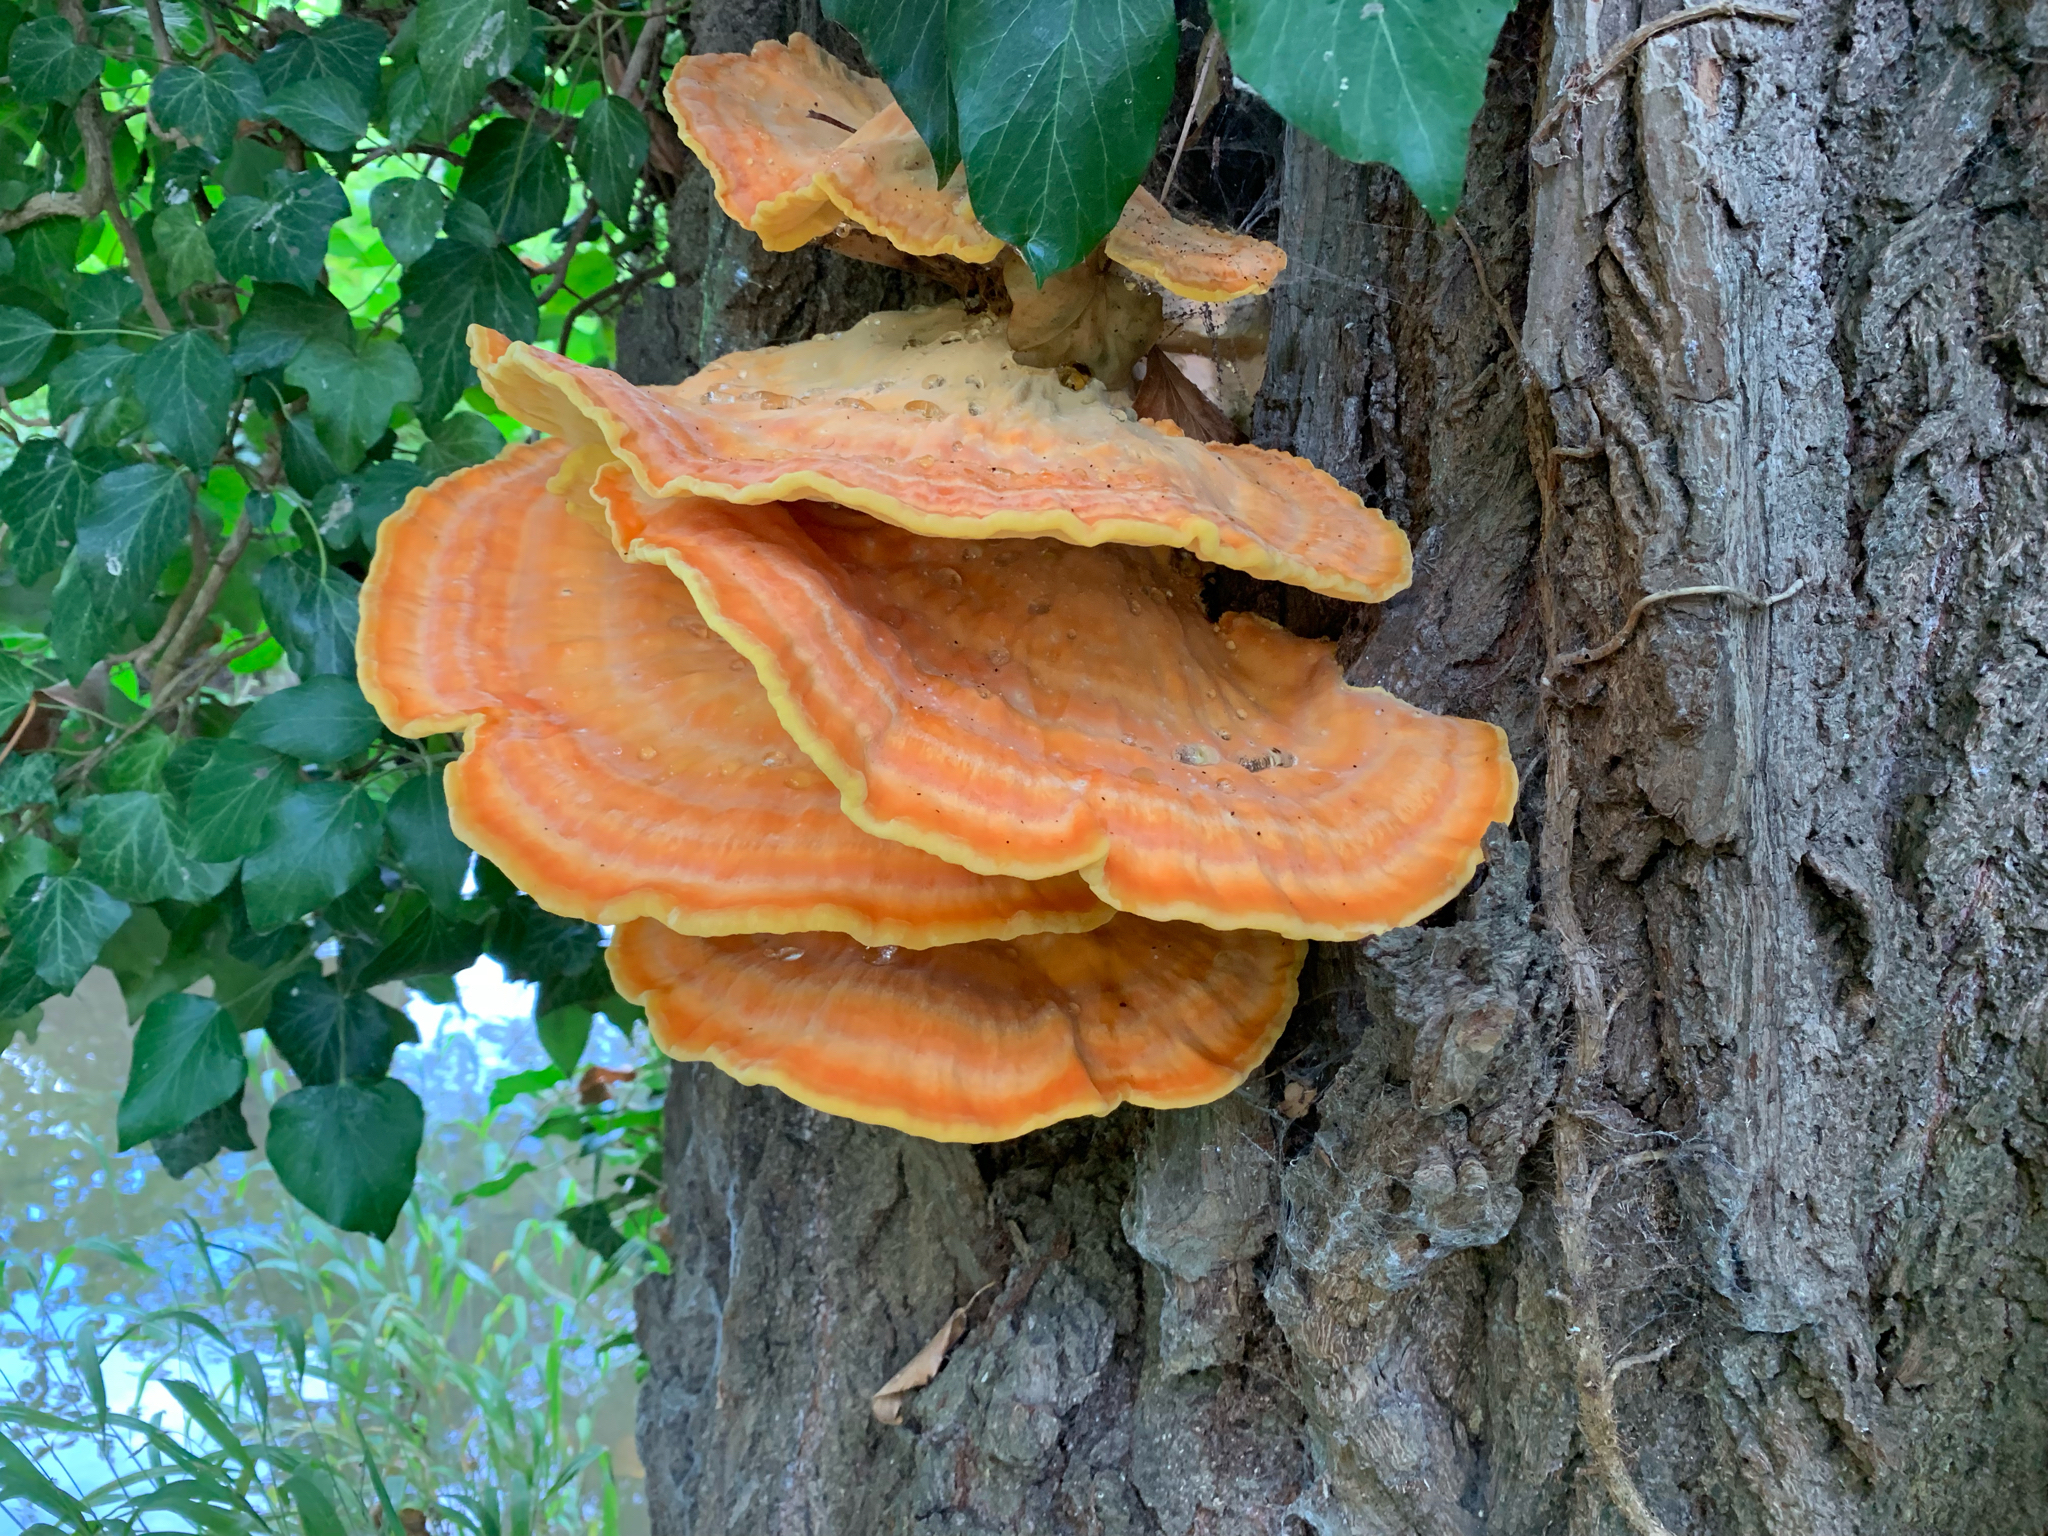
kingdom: Fungi
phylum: Basidiomycota
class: Agaricomycetes
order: Polyporales
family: Laetiporaceae
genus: Laetiporus
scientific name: Laetiporus sulphureus
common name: Chicken of the woods
